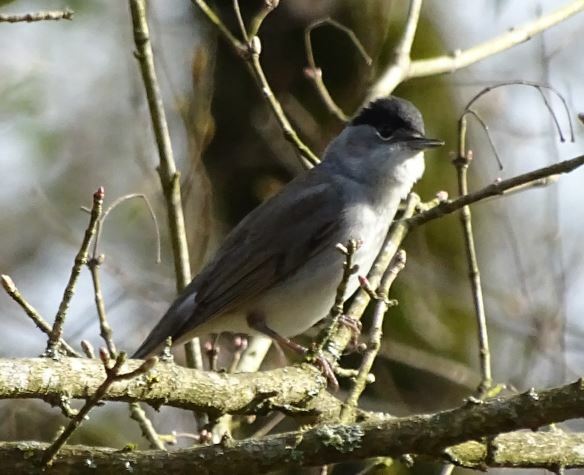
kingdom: Animalia
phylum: Chordata
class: Aves
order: Passeriformes
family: Sylviidae
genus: Sylvia
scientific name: Sylvia atricapilla
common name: Eurasian blackcap
